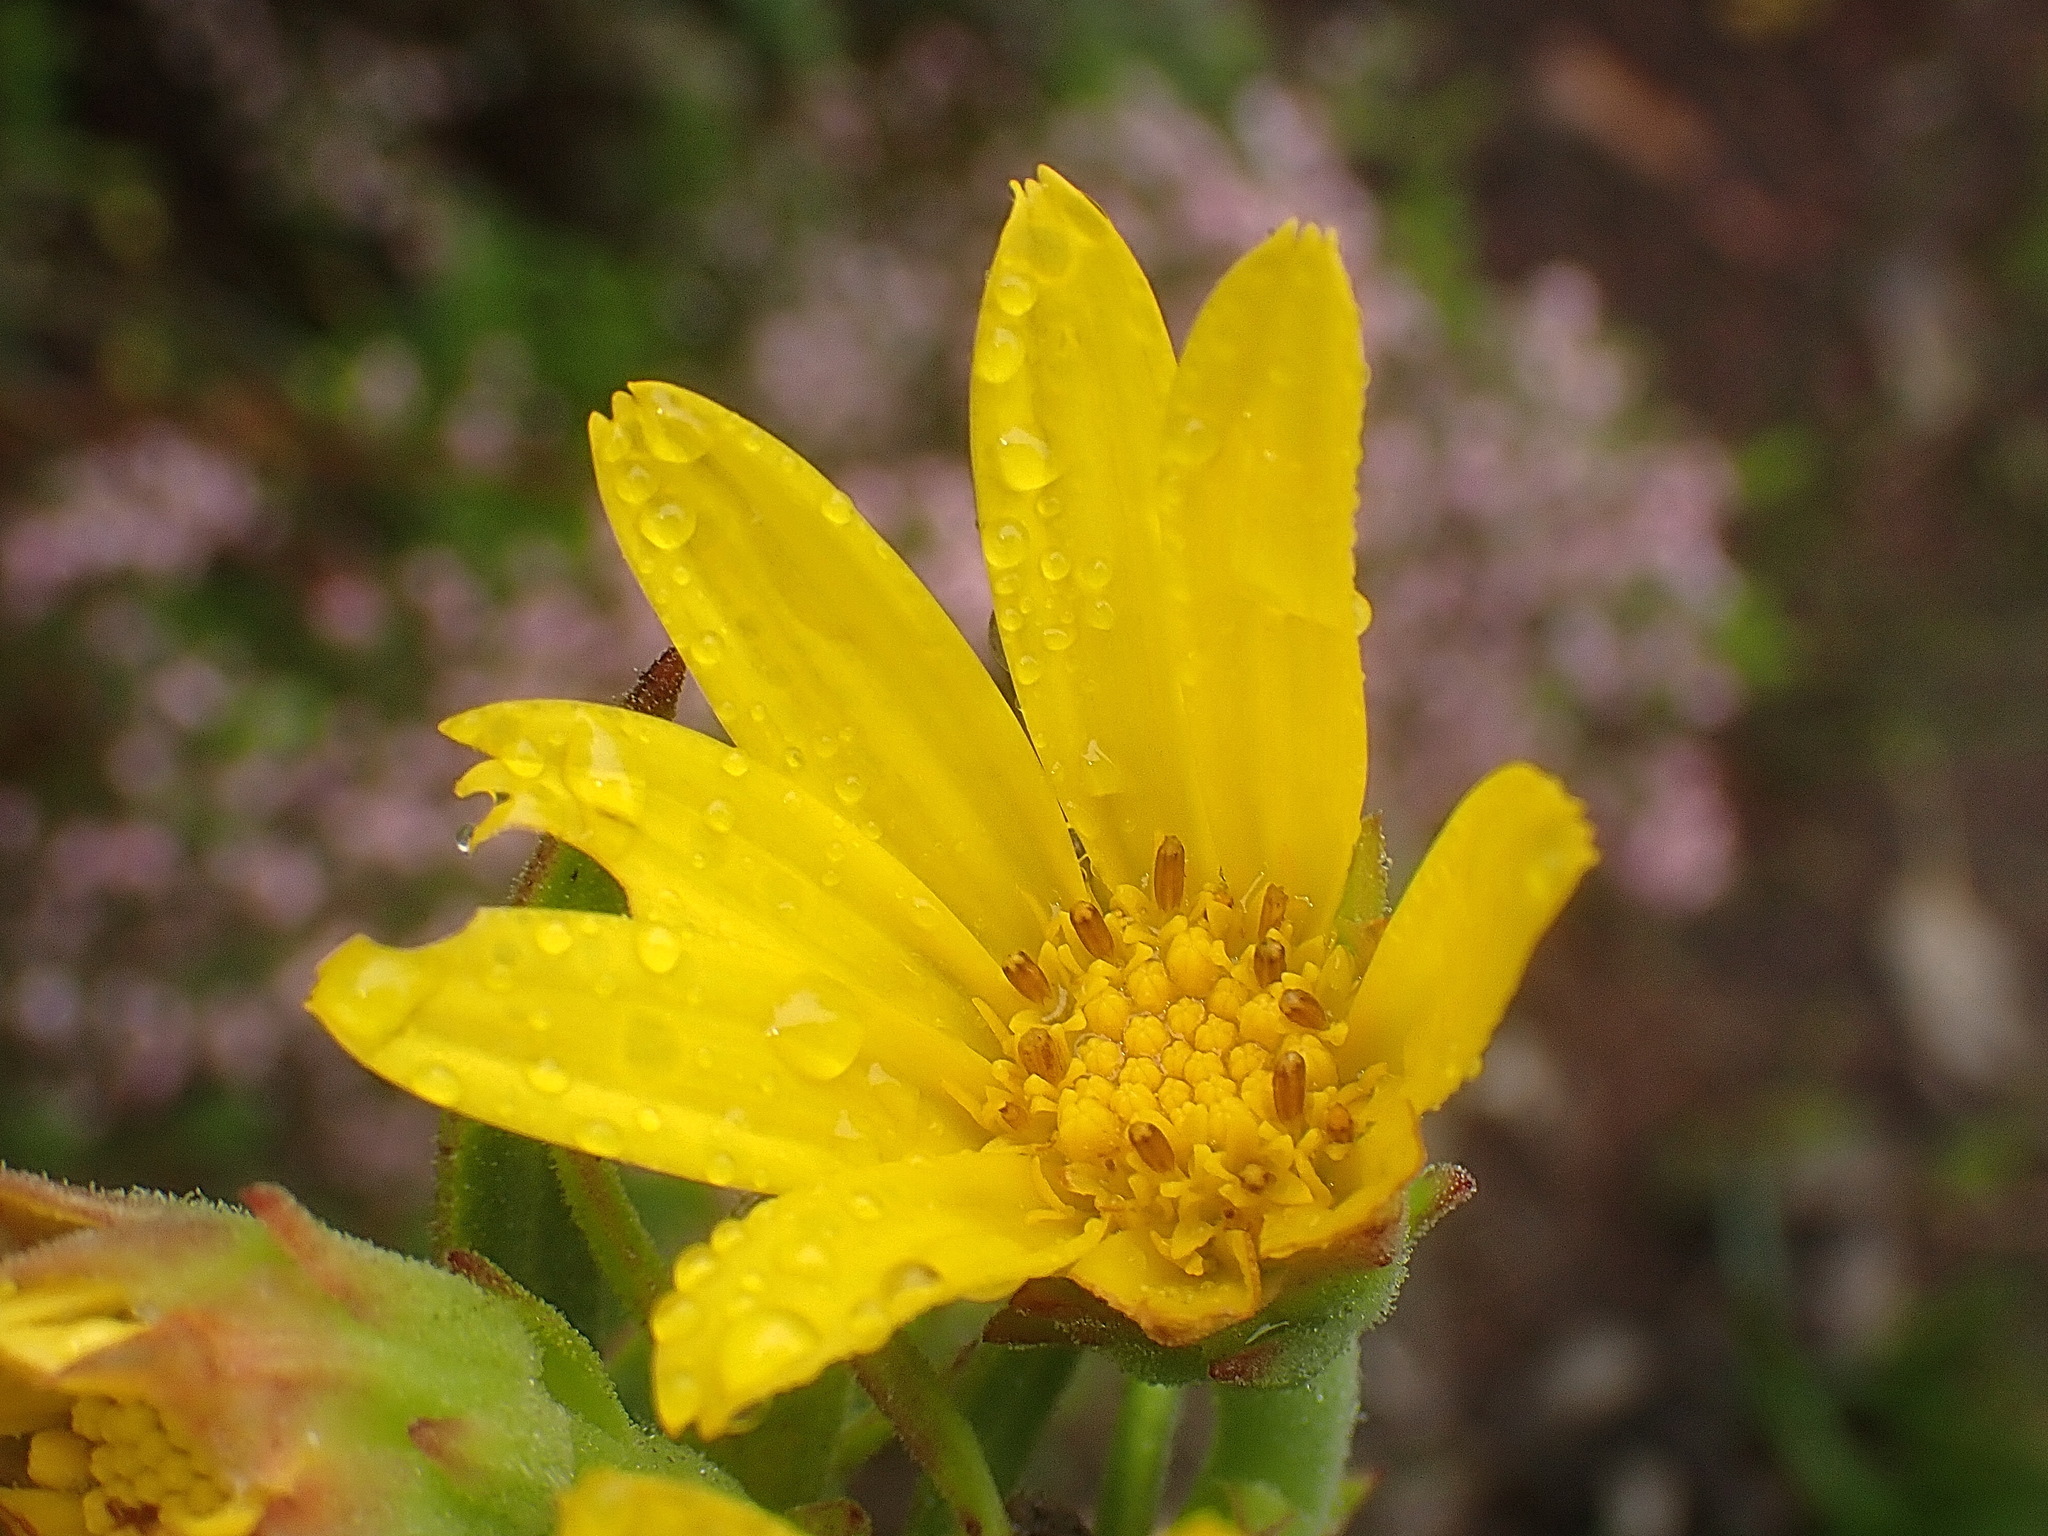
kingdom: Plantae
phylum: Tracheophyta
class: Magnoliopsida
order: Asterales
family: Asteraceae
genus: Osteospermum
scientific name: Osteospermum
